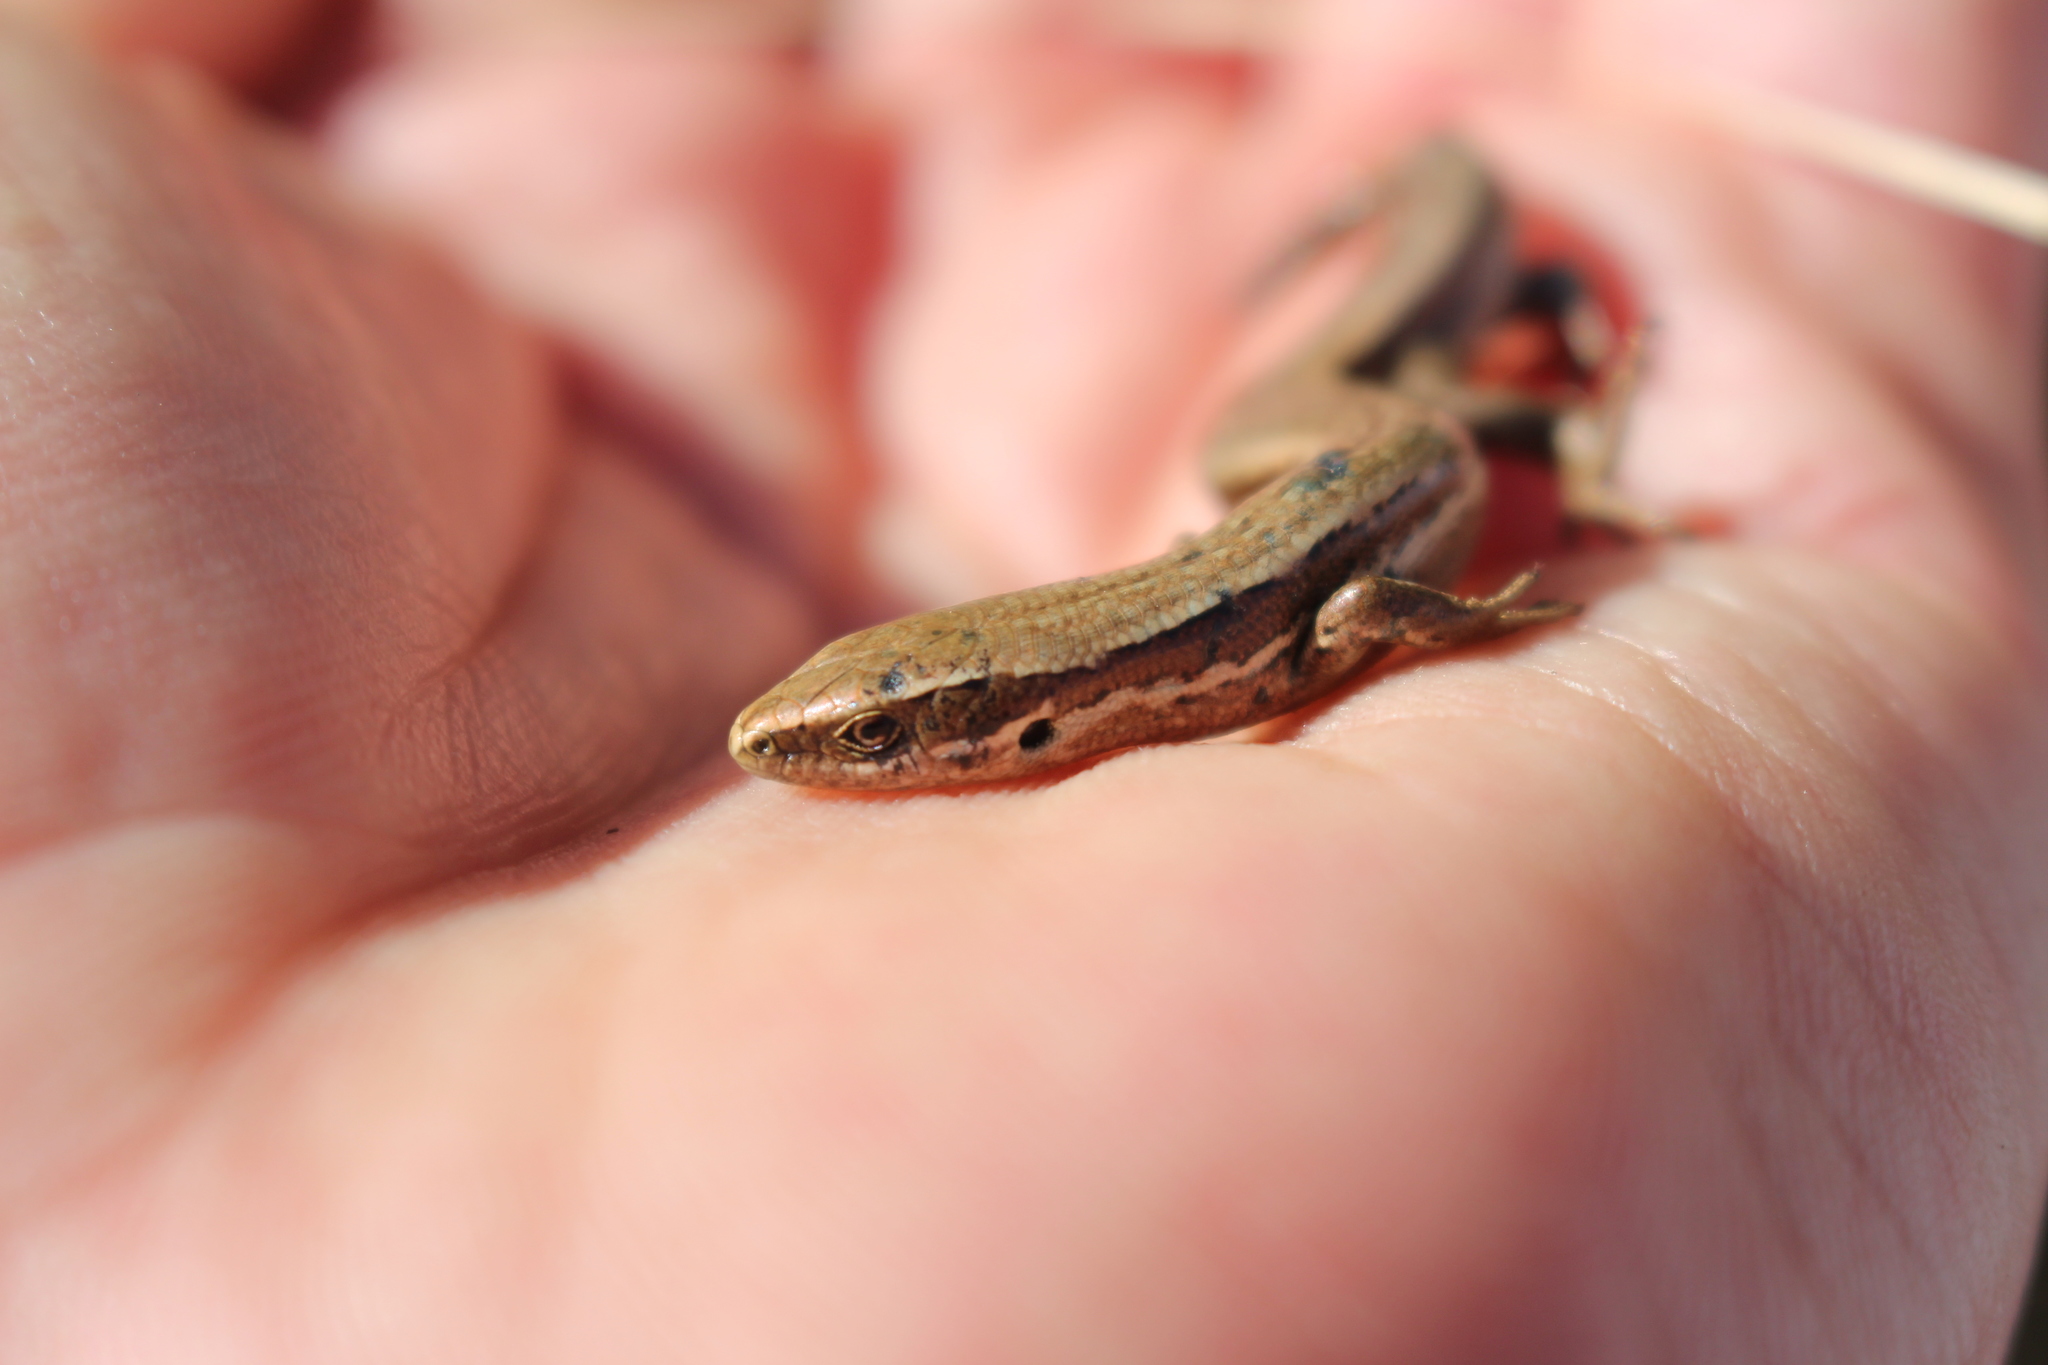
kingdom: Animalia
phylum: Chordata
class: Squamata
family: Scincidae
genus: Oligosoma
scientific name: Oligosoma polychroma
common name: Common new zealand skink
